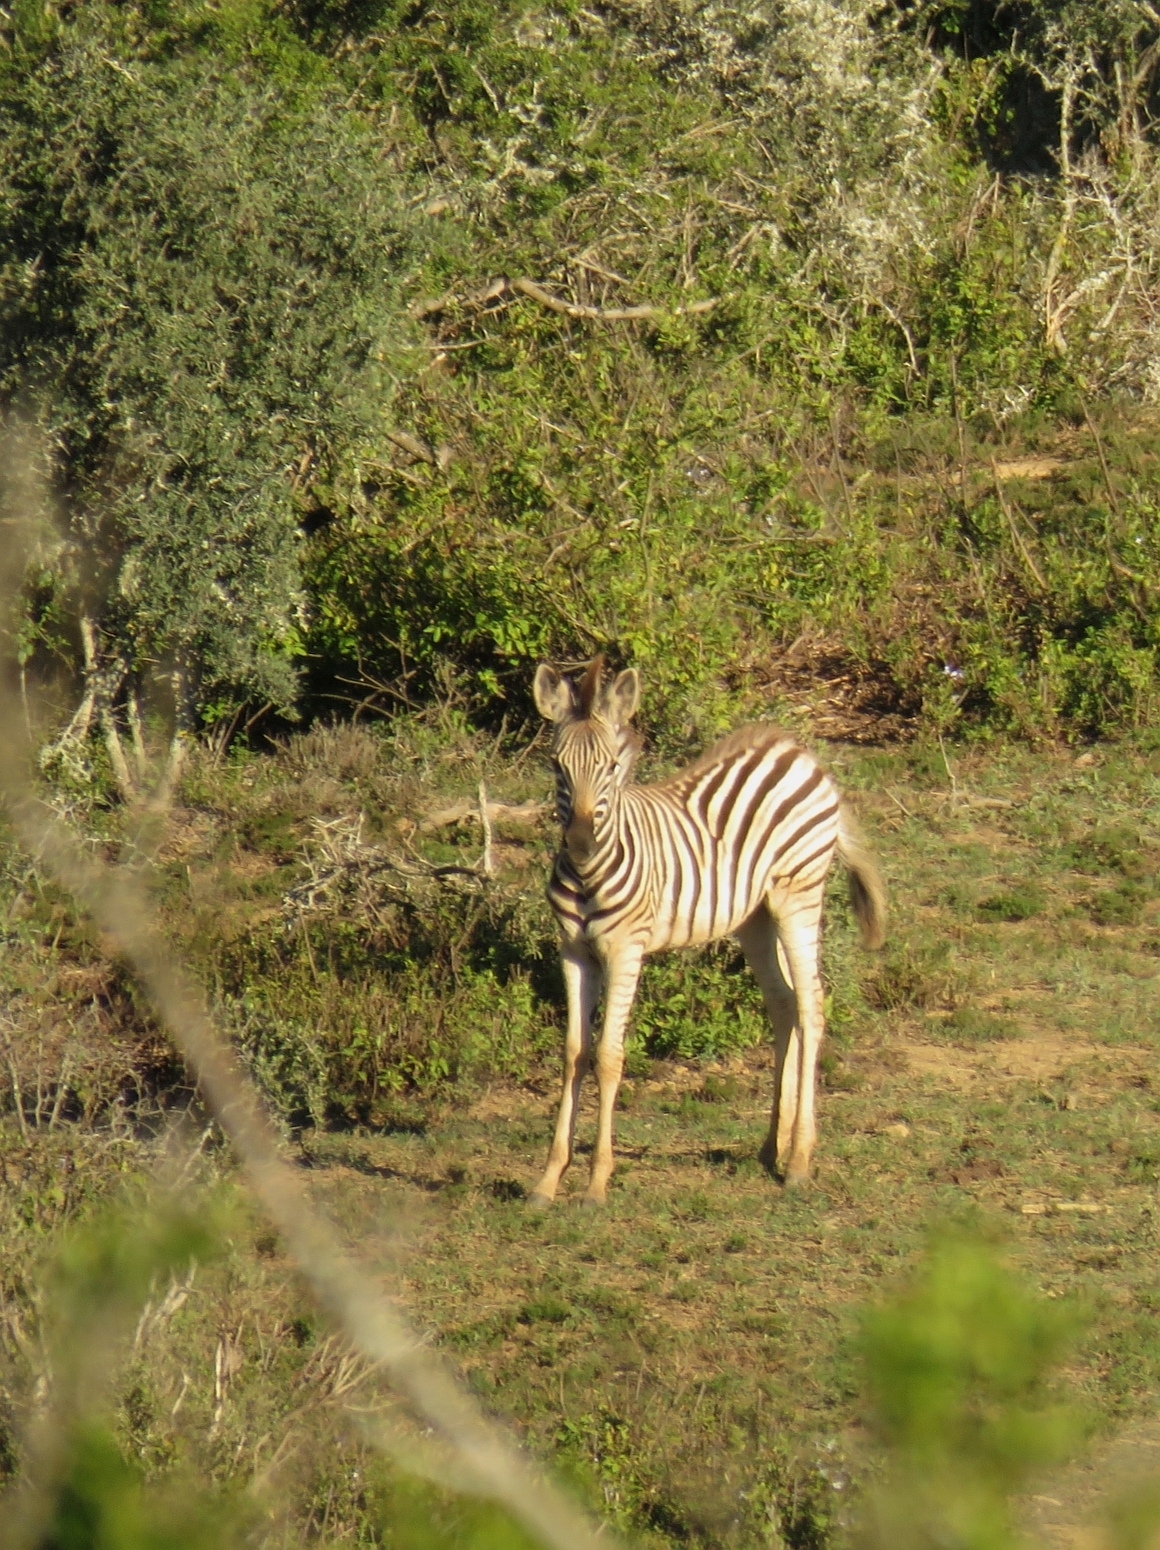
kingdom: Animalia
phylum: Chordata
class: Mammalia
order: Perissodactyla
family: Equidae
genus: Equus
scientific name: Equus quagga
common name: Plains zebra
